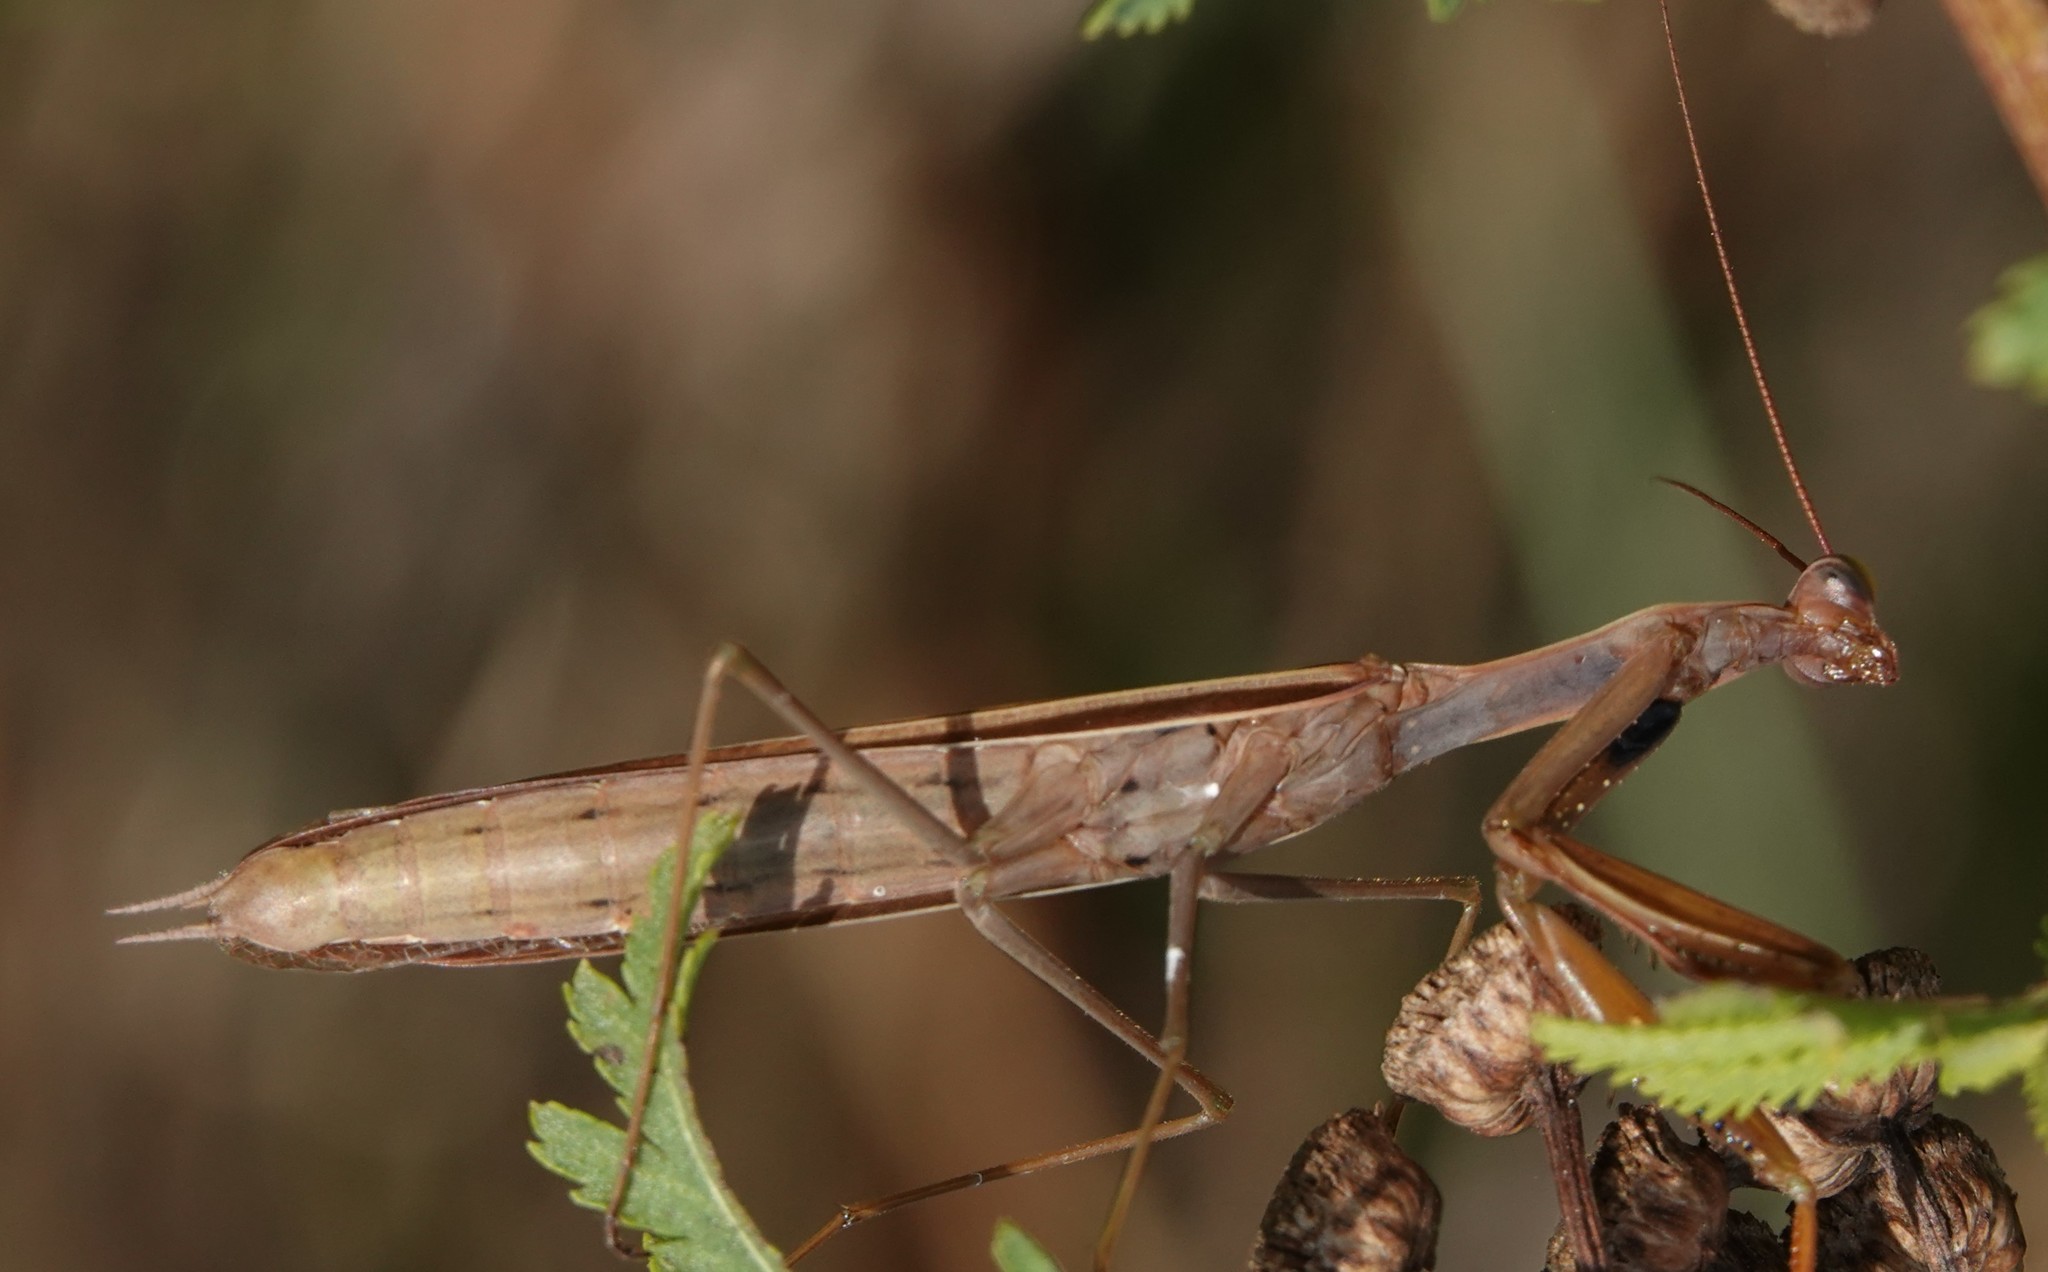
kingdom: Animalia
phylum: Arthropoda
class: Insecta
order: Mantodea
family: Mantidae
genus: Mantis
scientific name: Mantis religiosa
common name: Praying mantis
